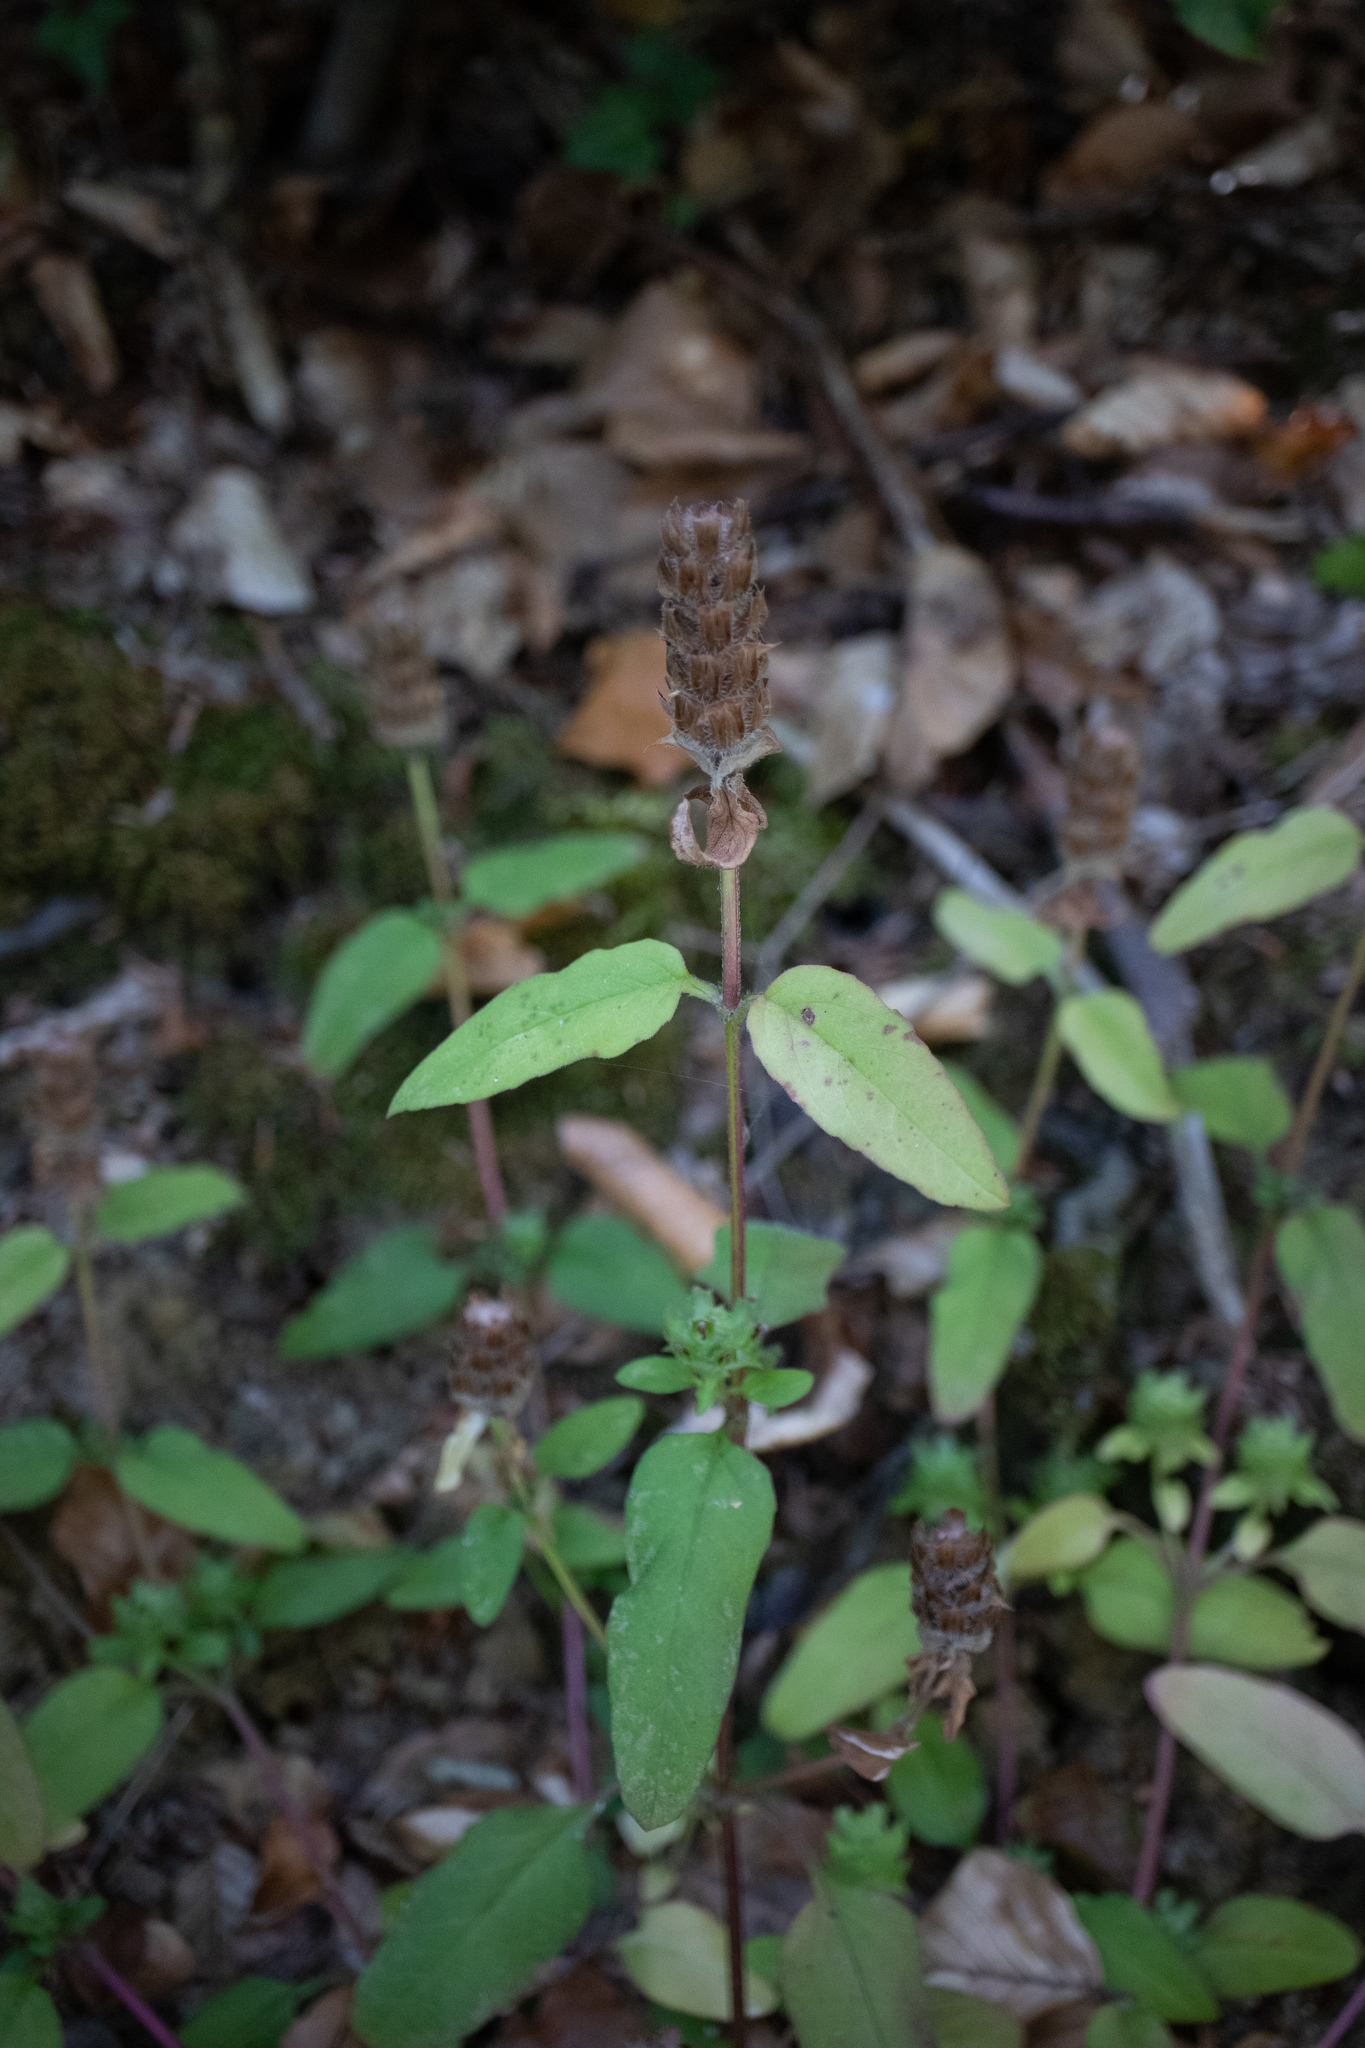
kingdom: Plantae
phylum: Tracheophyta
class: Magnoliopsida
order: Lamiales
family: Lamiaceae
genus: Prunella
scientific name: Prunella vulgaris
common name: Heal-all
